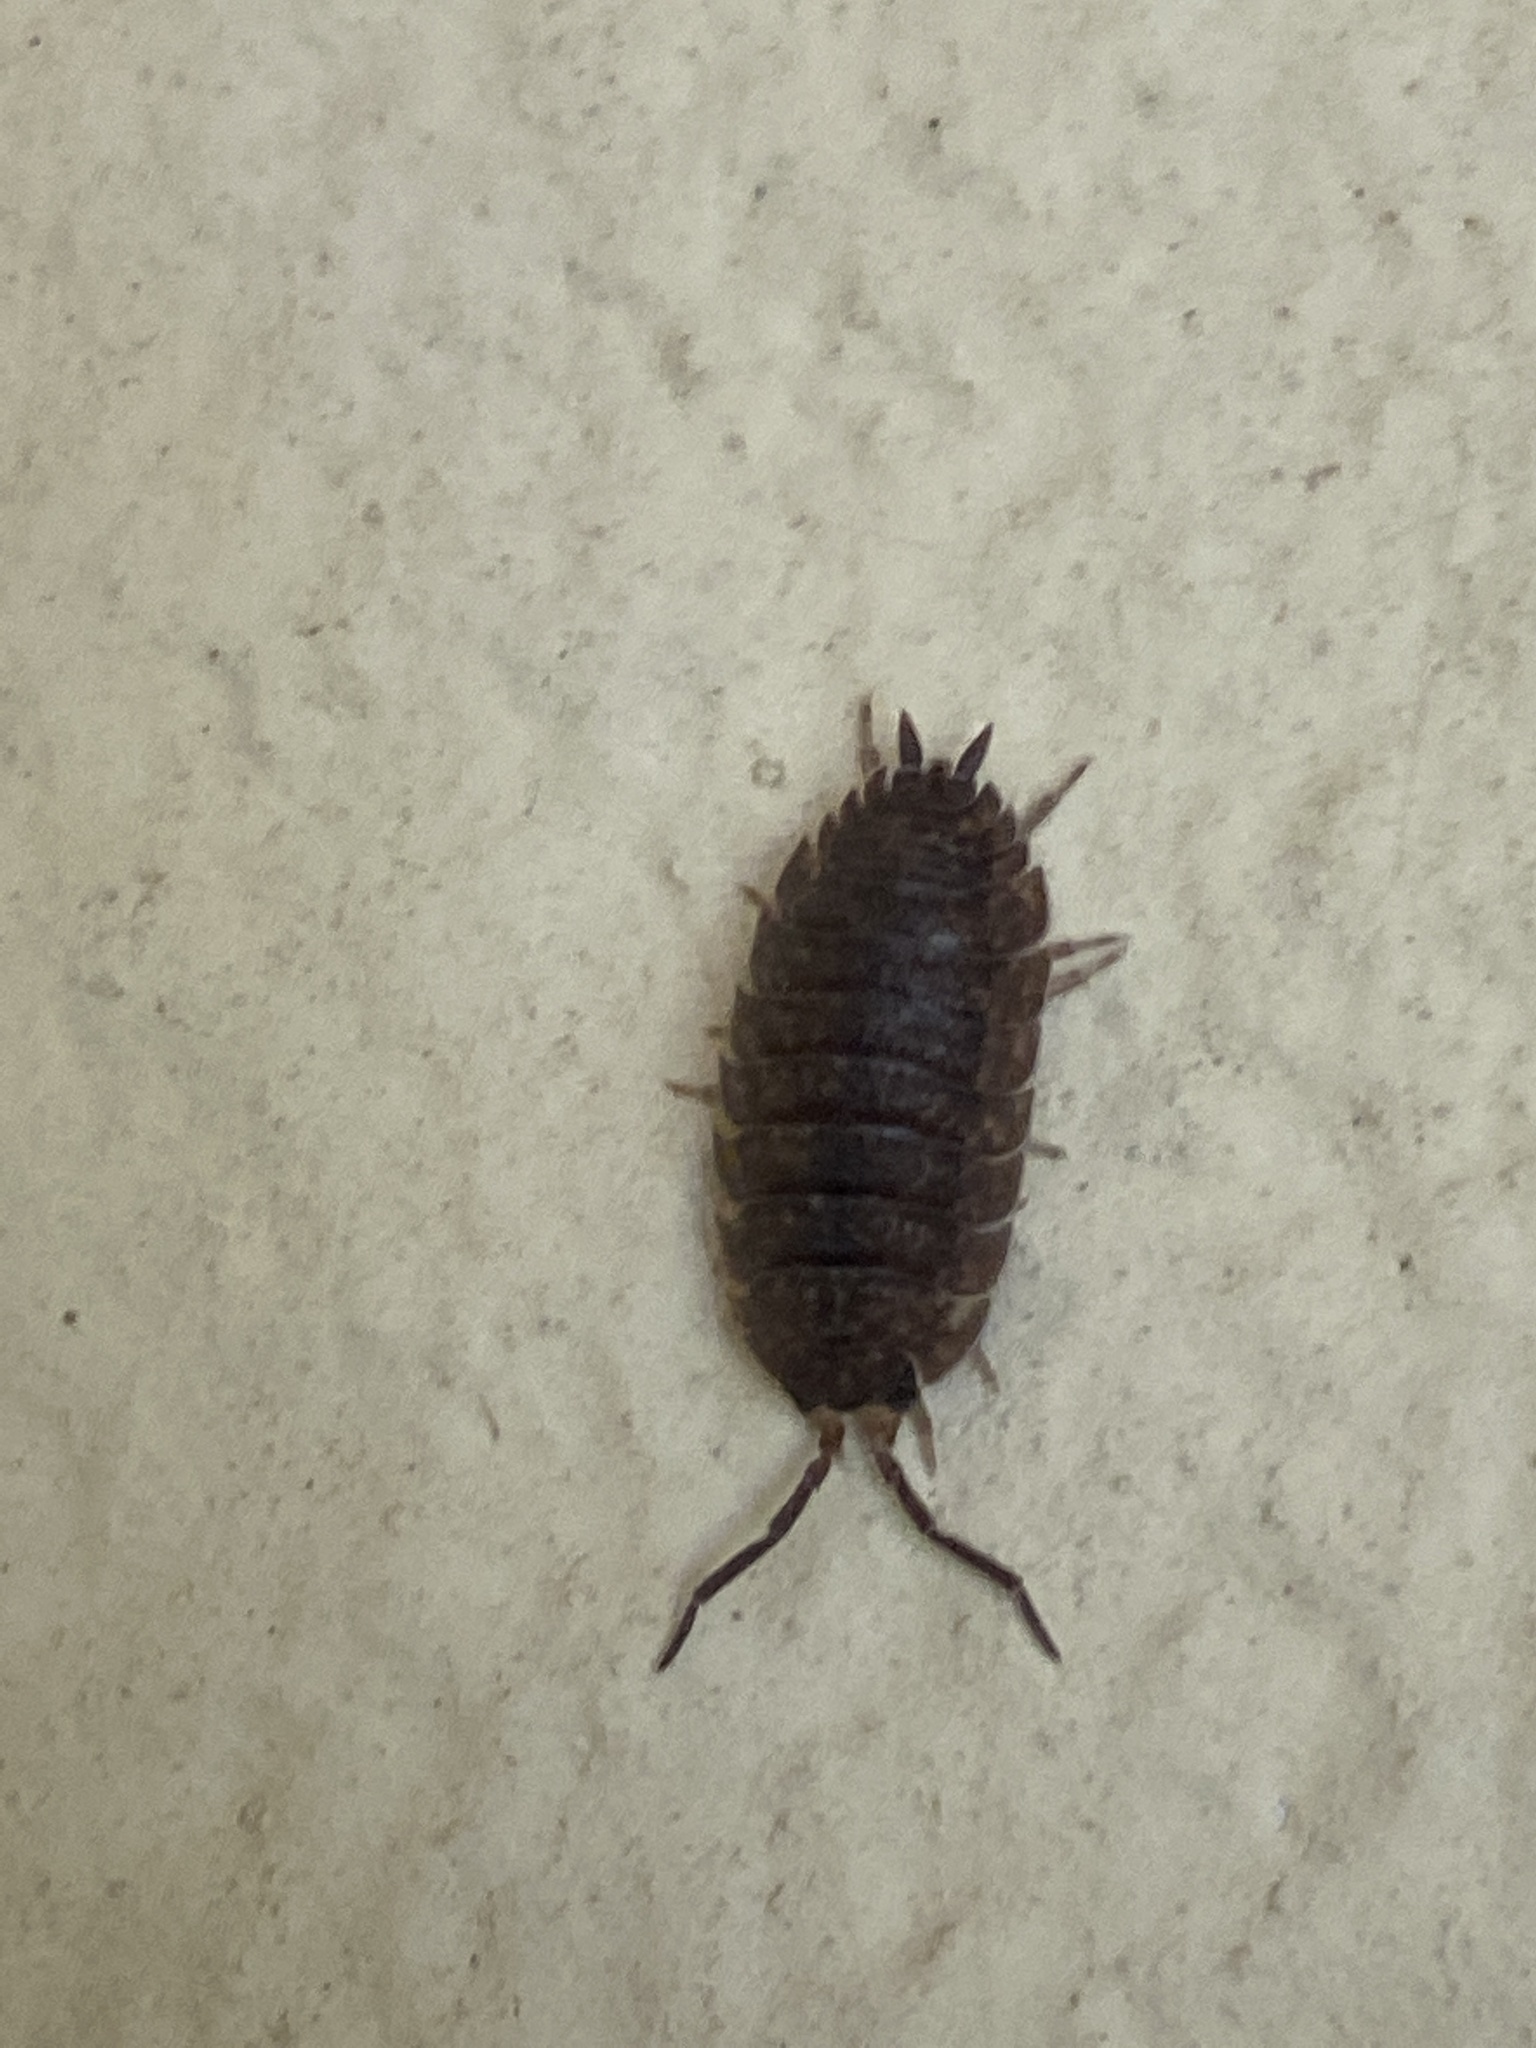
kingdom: Animalia
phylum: Arthropoda
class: Malacostraca
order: Isopoda
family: Porcellionidae
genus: Porcellio
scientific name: Porcellio scaber
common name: Common rough woodlouse
